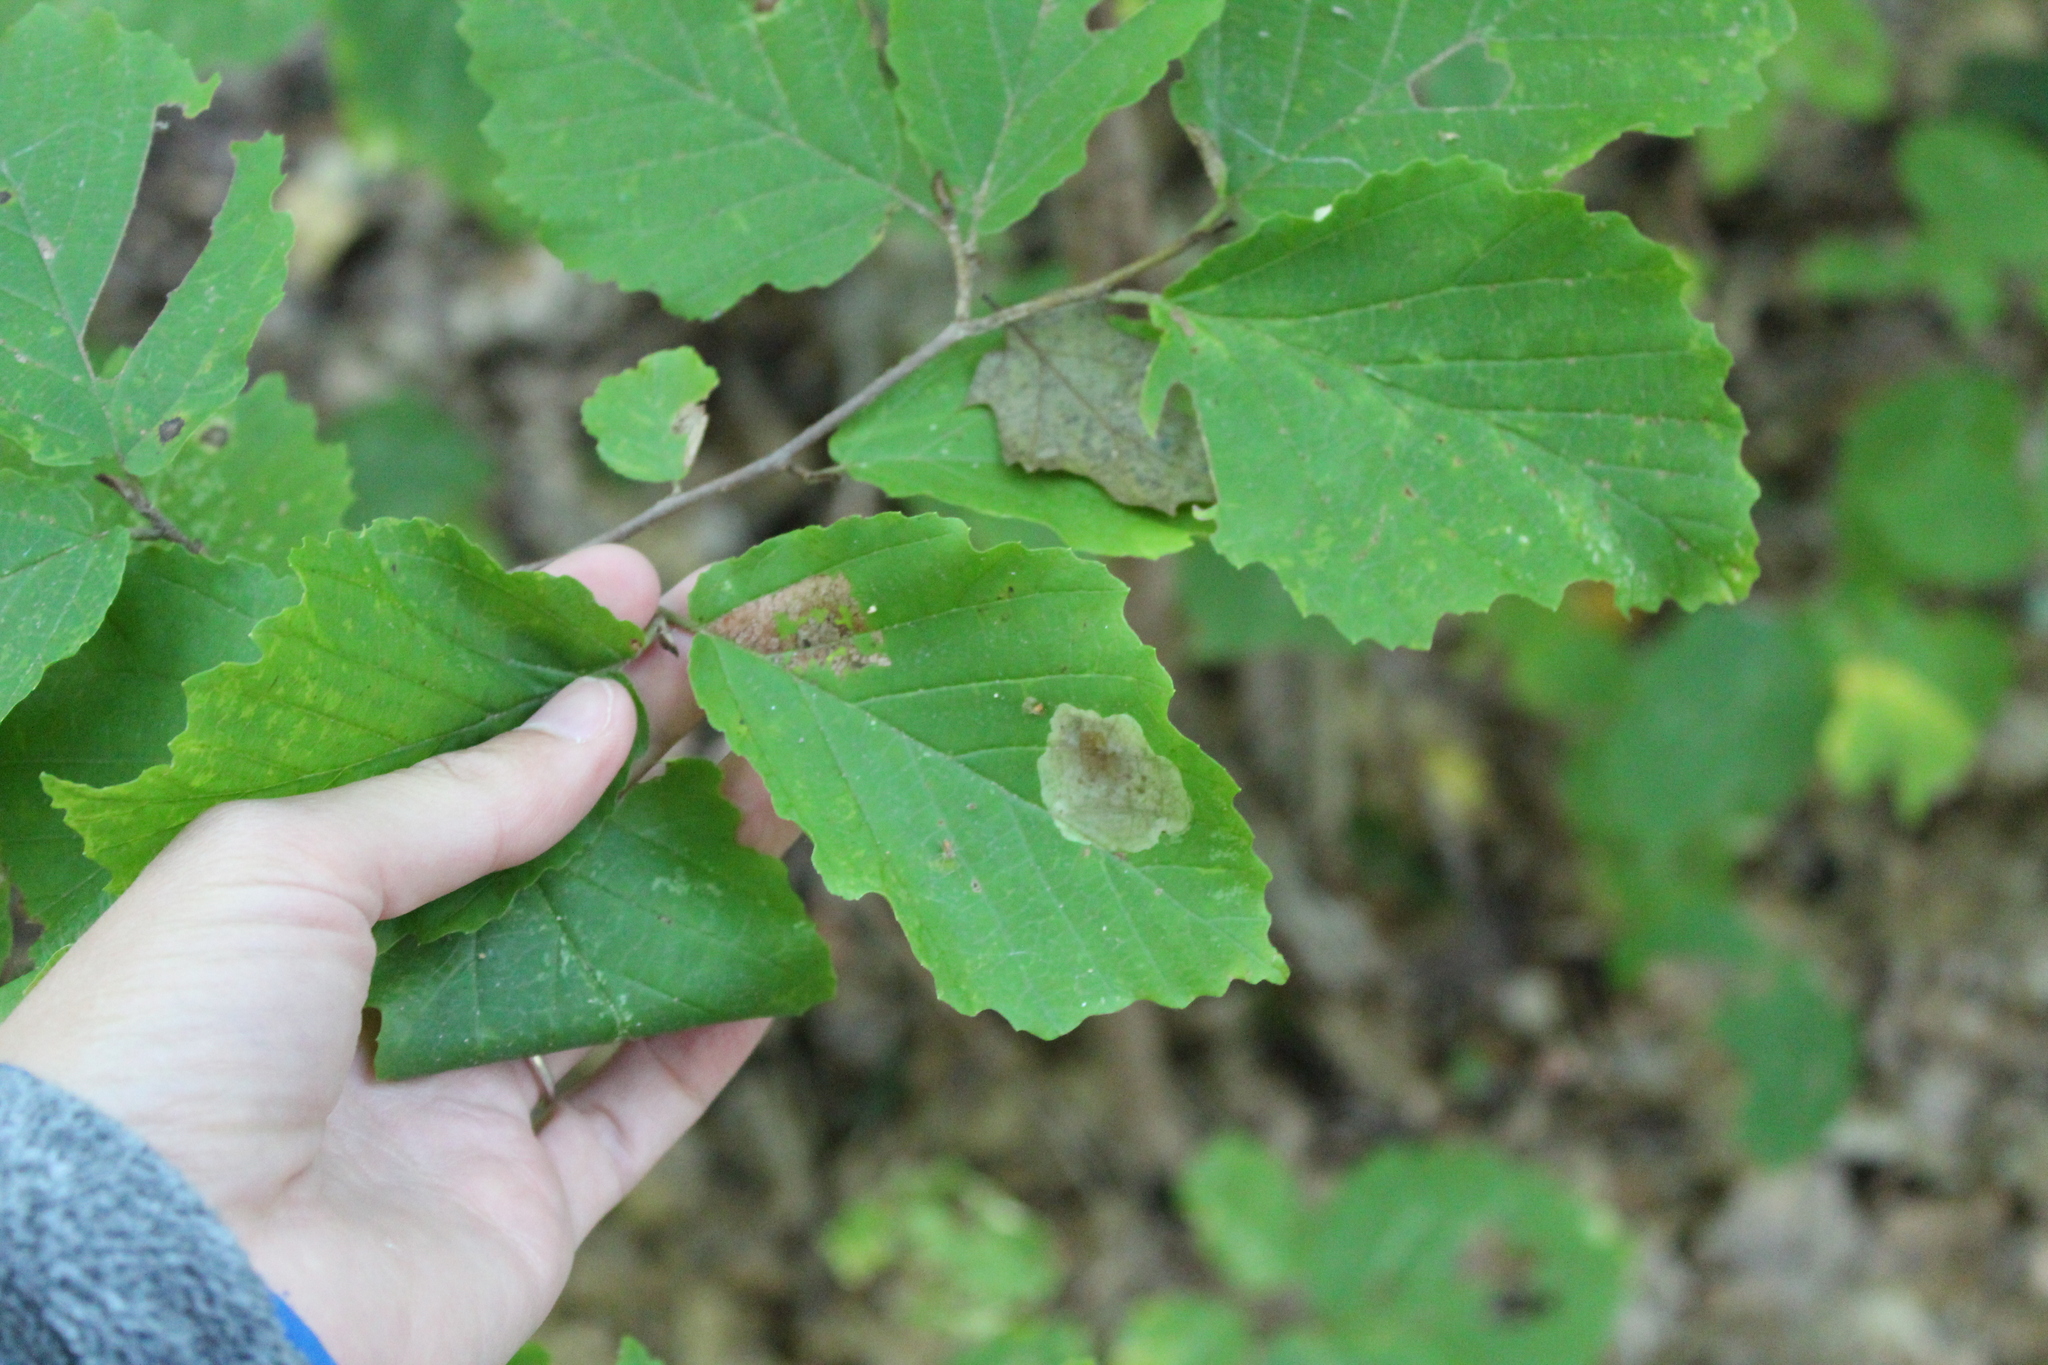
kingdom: Plantae
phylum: Tracheophyta
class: Magnoliopsida
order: Saxifragales
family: Hamamelidaceae
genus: Hamamelis
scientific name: Hamamelis virginiana
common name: Witch-hazel
